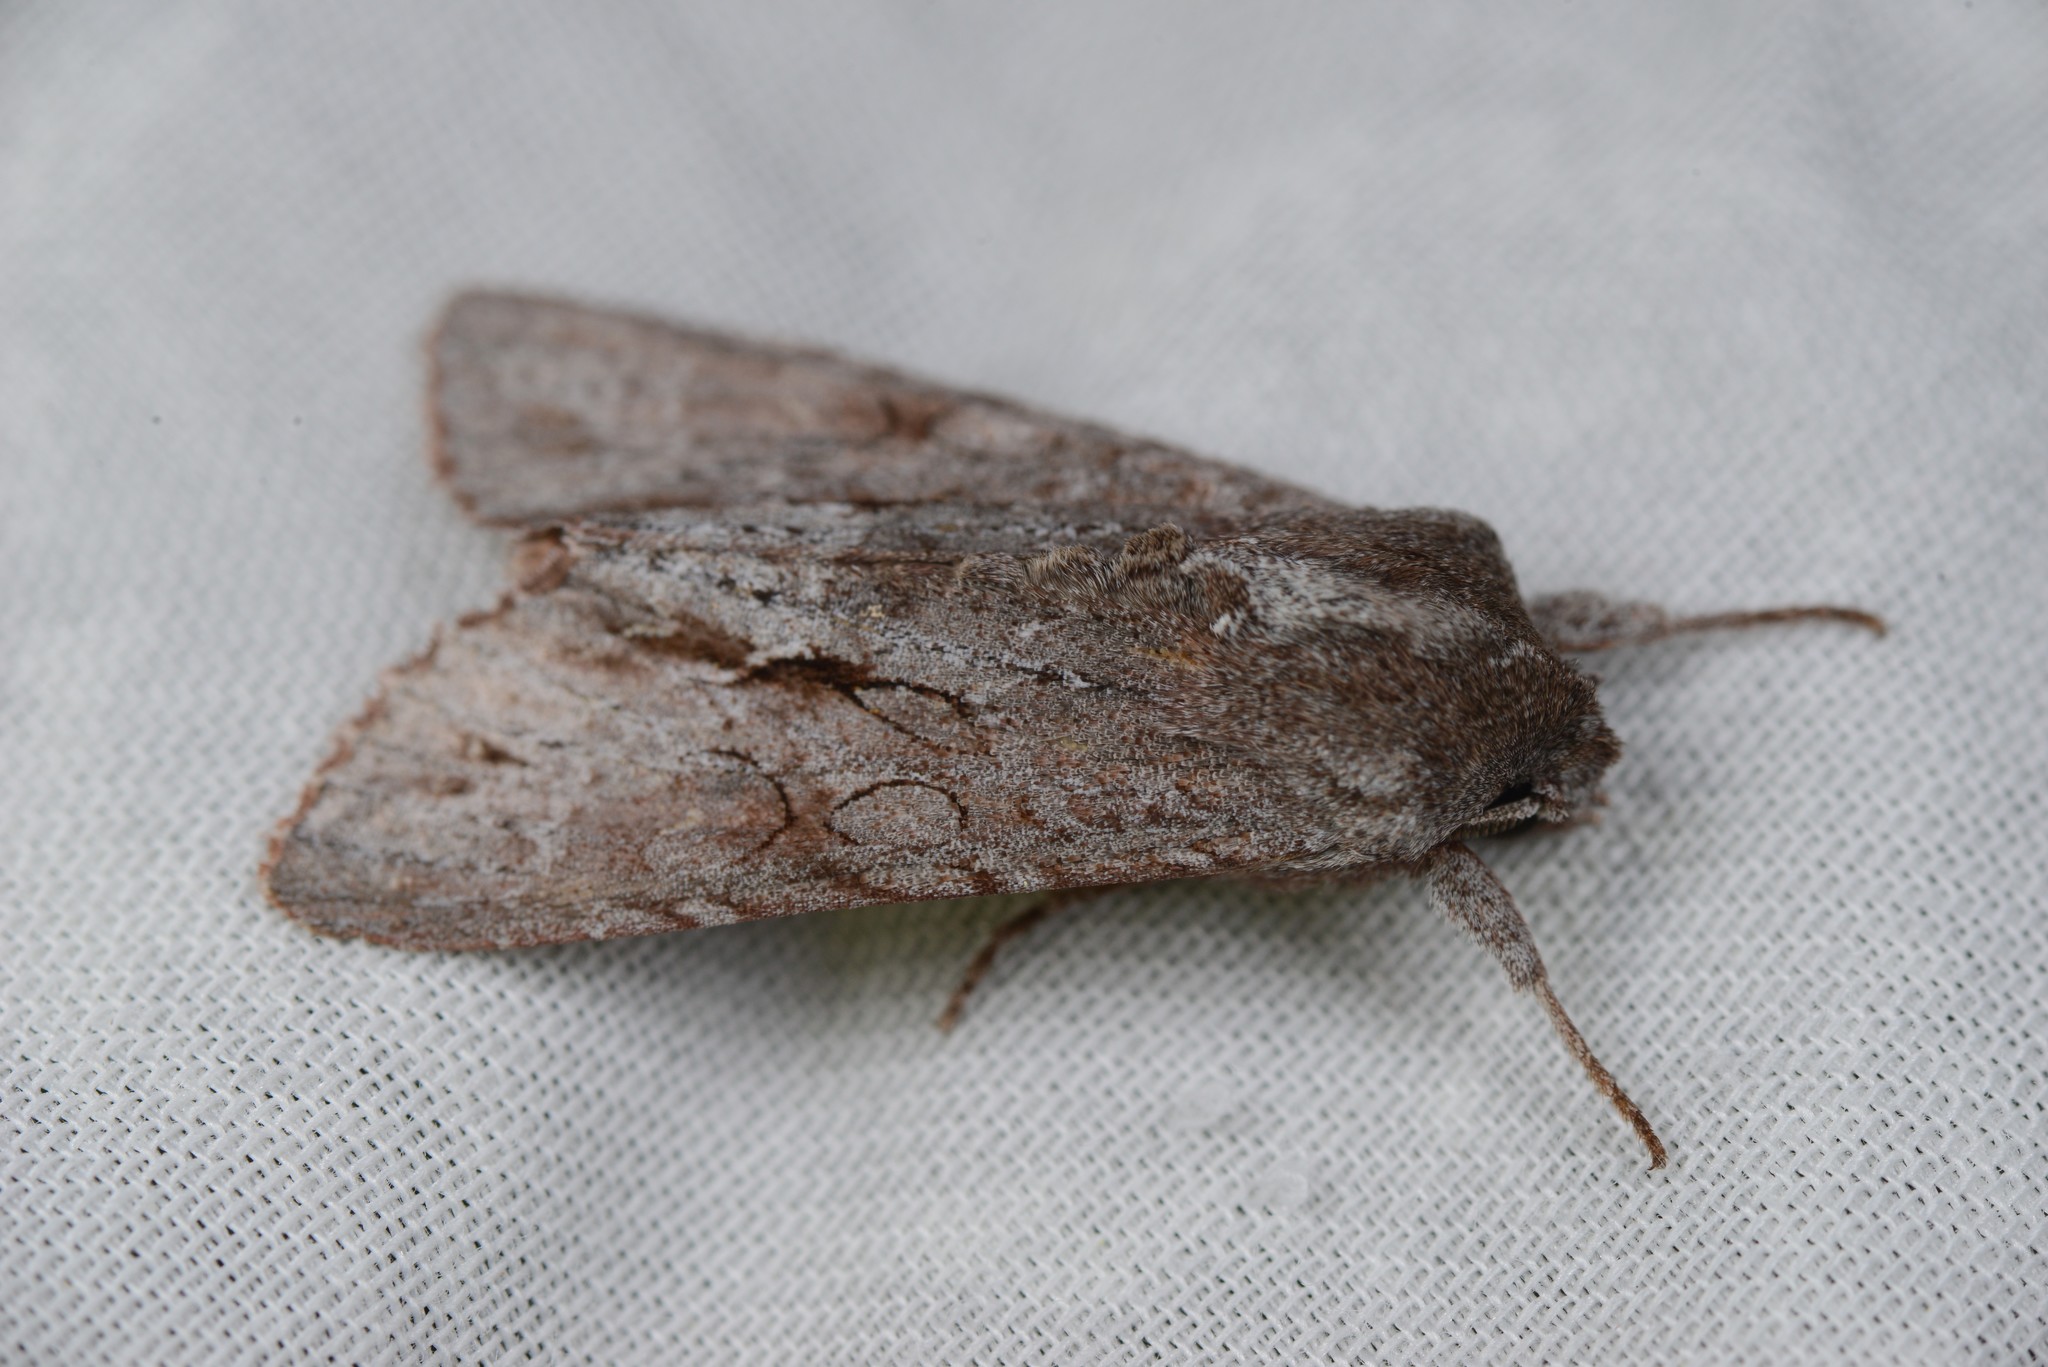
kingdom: Animalia
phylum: Arthropoda
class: Insecta
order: Lepidoptera
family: Noctuidae
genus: Ichneutica
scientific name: Ichneutica
